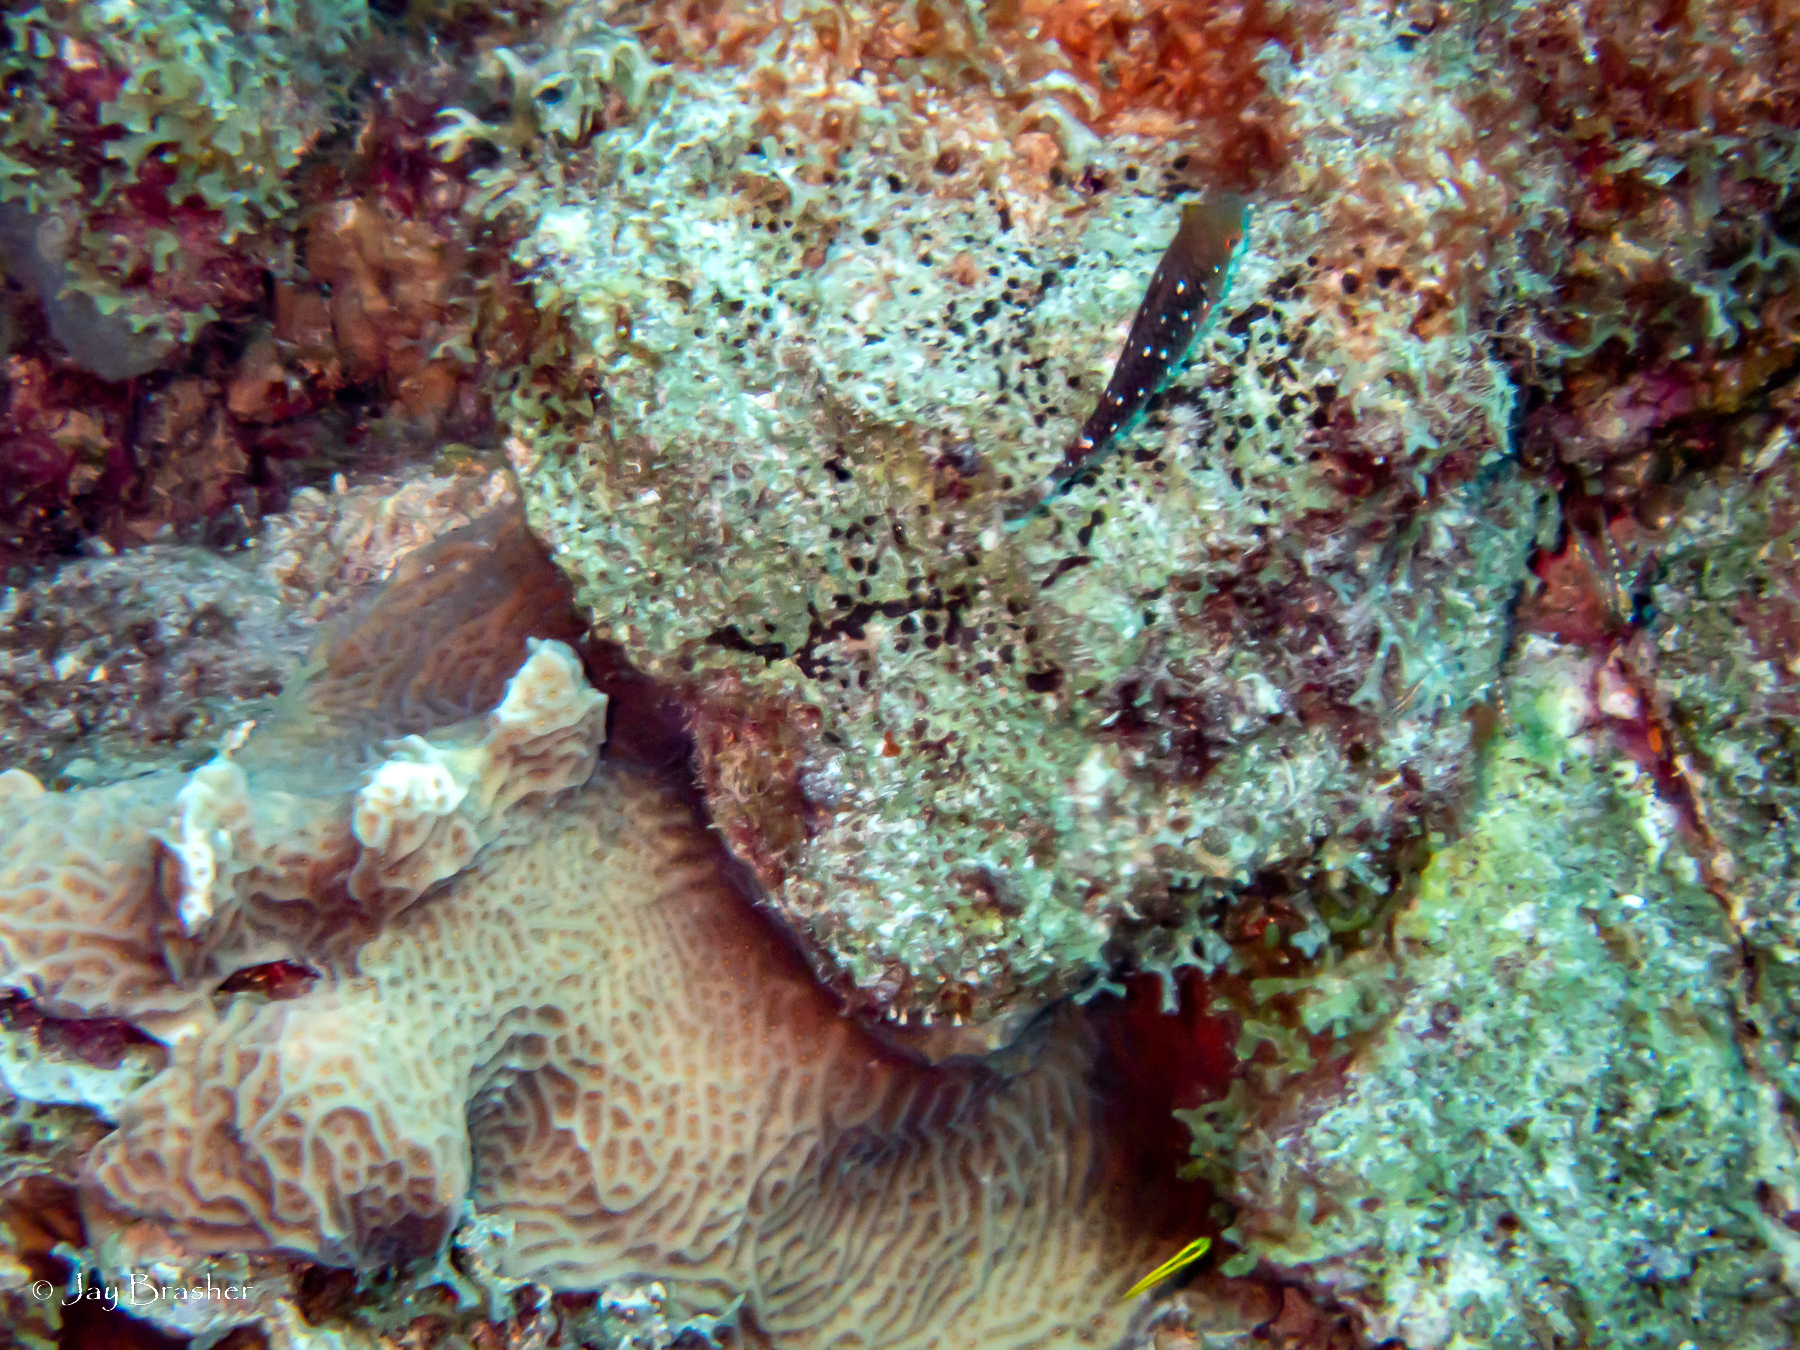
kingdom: Animalia
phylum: Chordata
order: Perciformes
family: Scaridae
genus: Sparisoma
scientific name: Sparisoma viride
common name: Stoplight parrotfish
